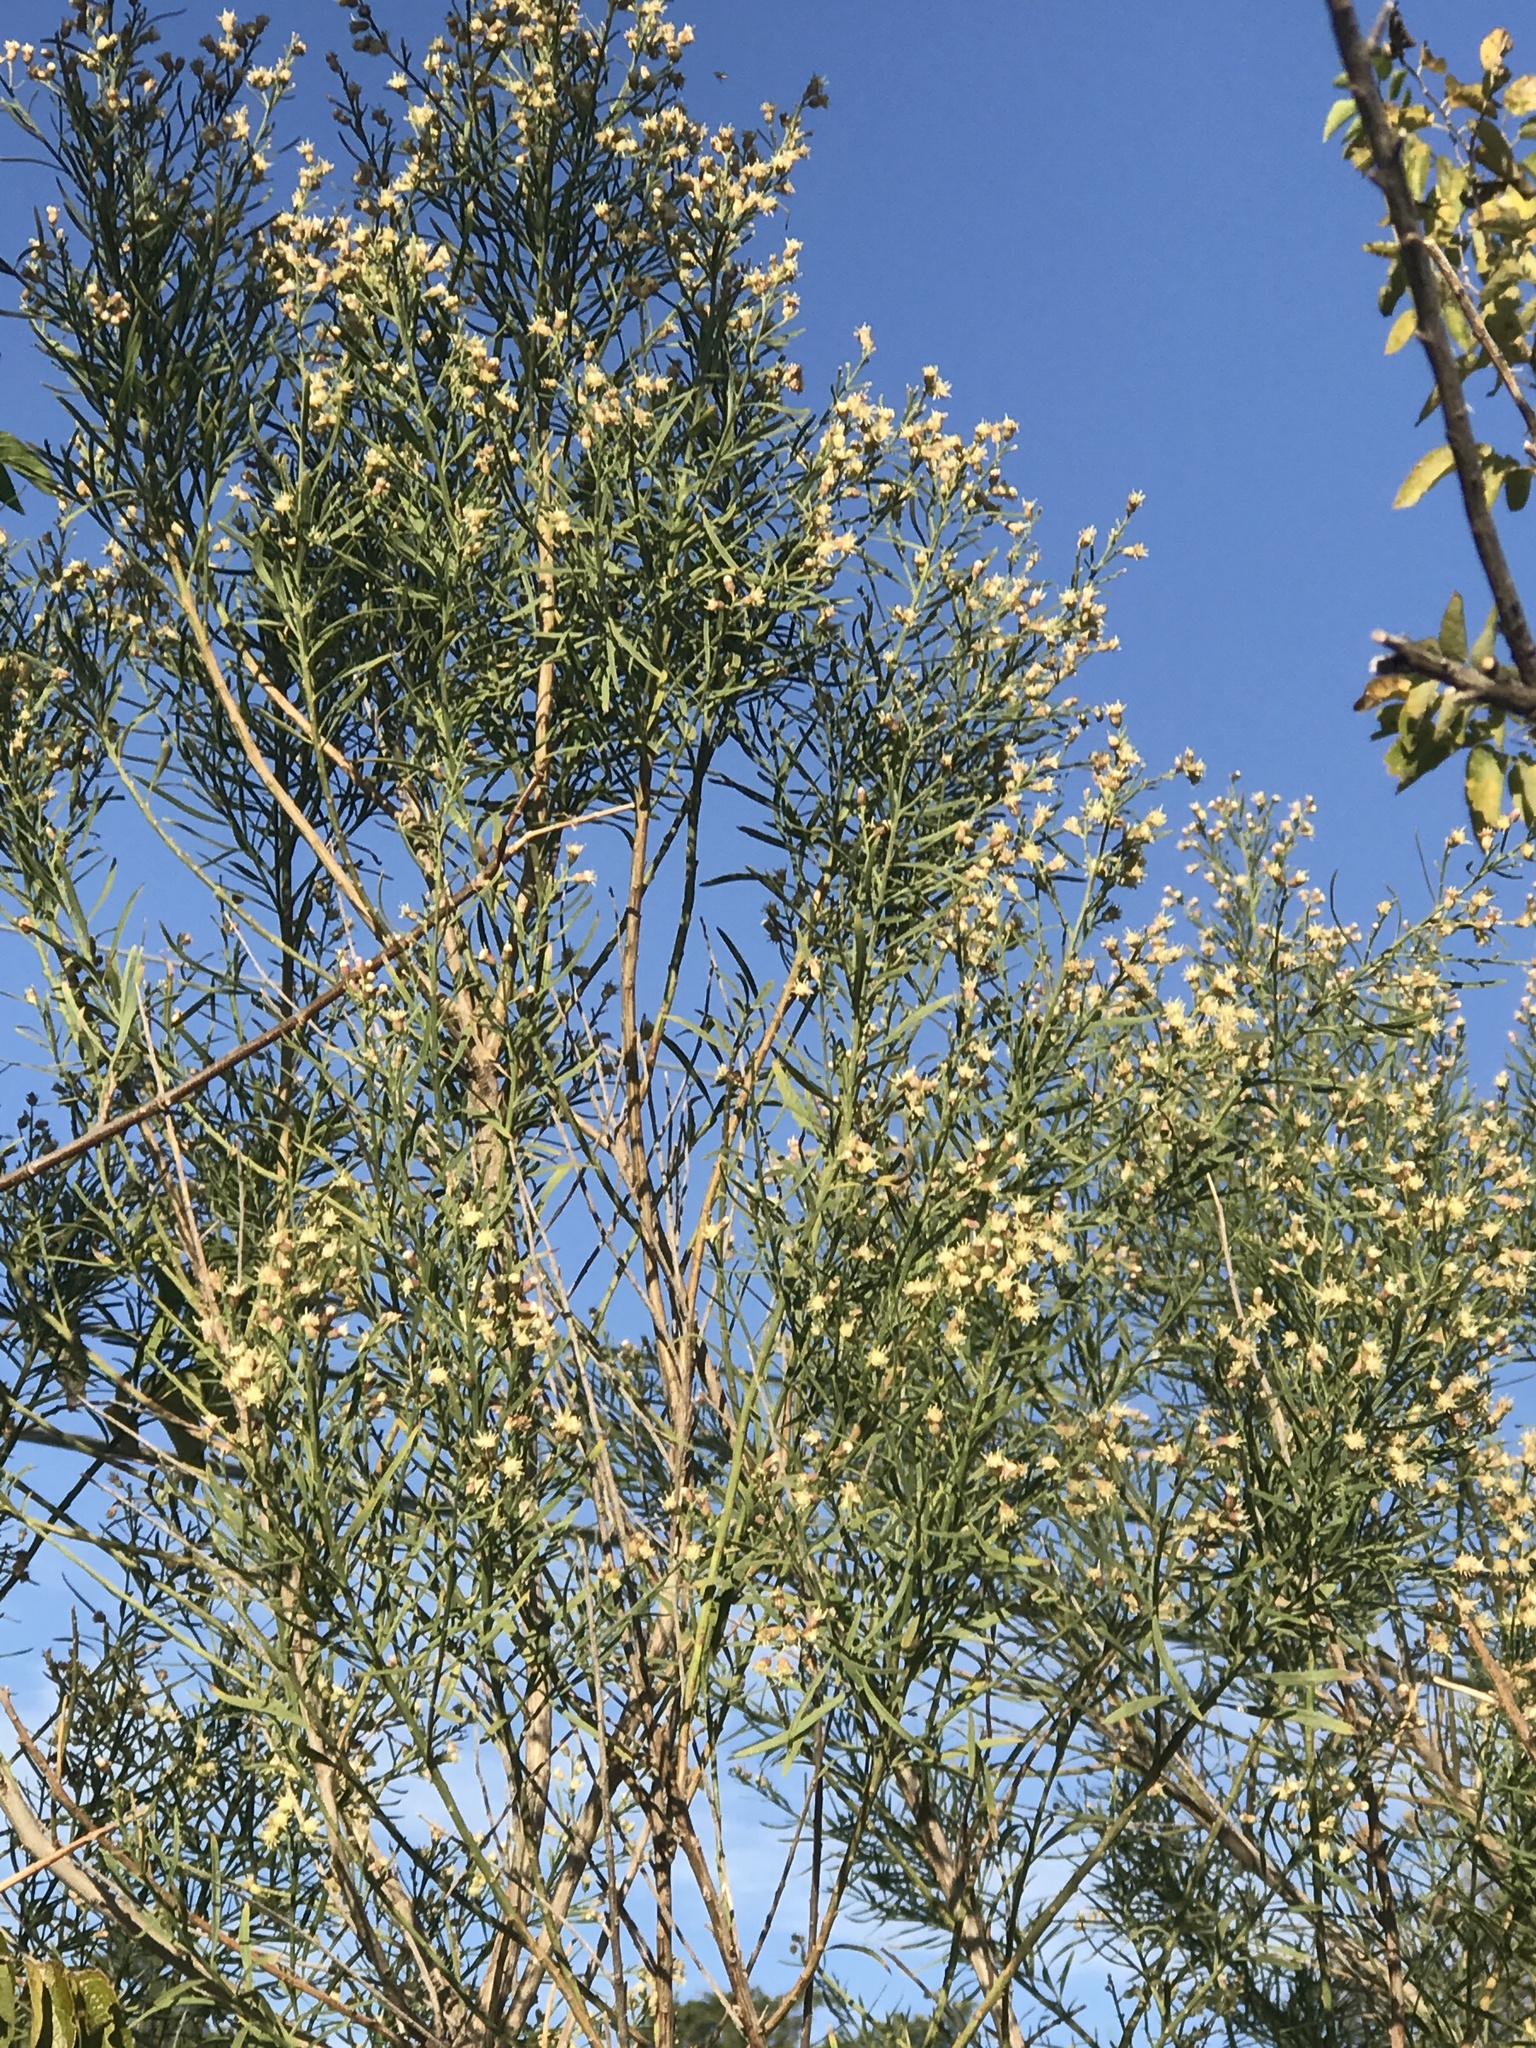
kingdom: Plantae
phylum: Tracheophyta
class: Magnoliopsida
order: Asterales
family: Asteraceae
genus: Baccharis
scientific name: Baccharis neglecta
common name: Roosevelt-weed
